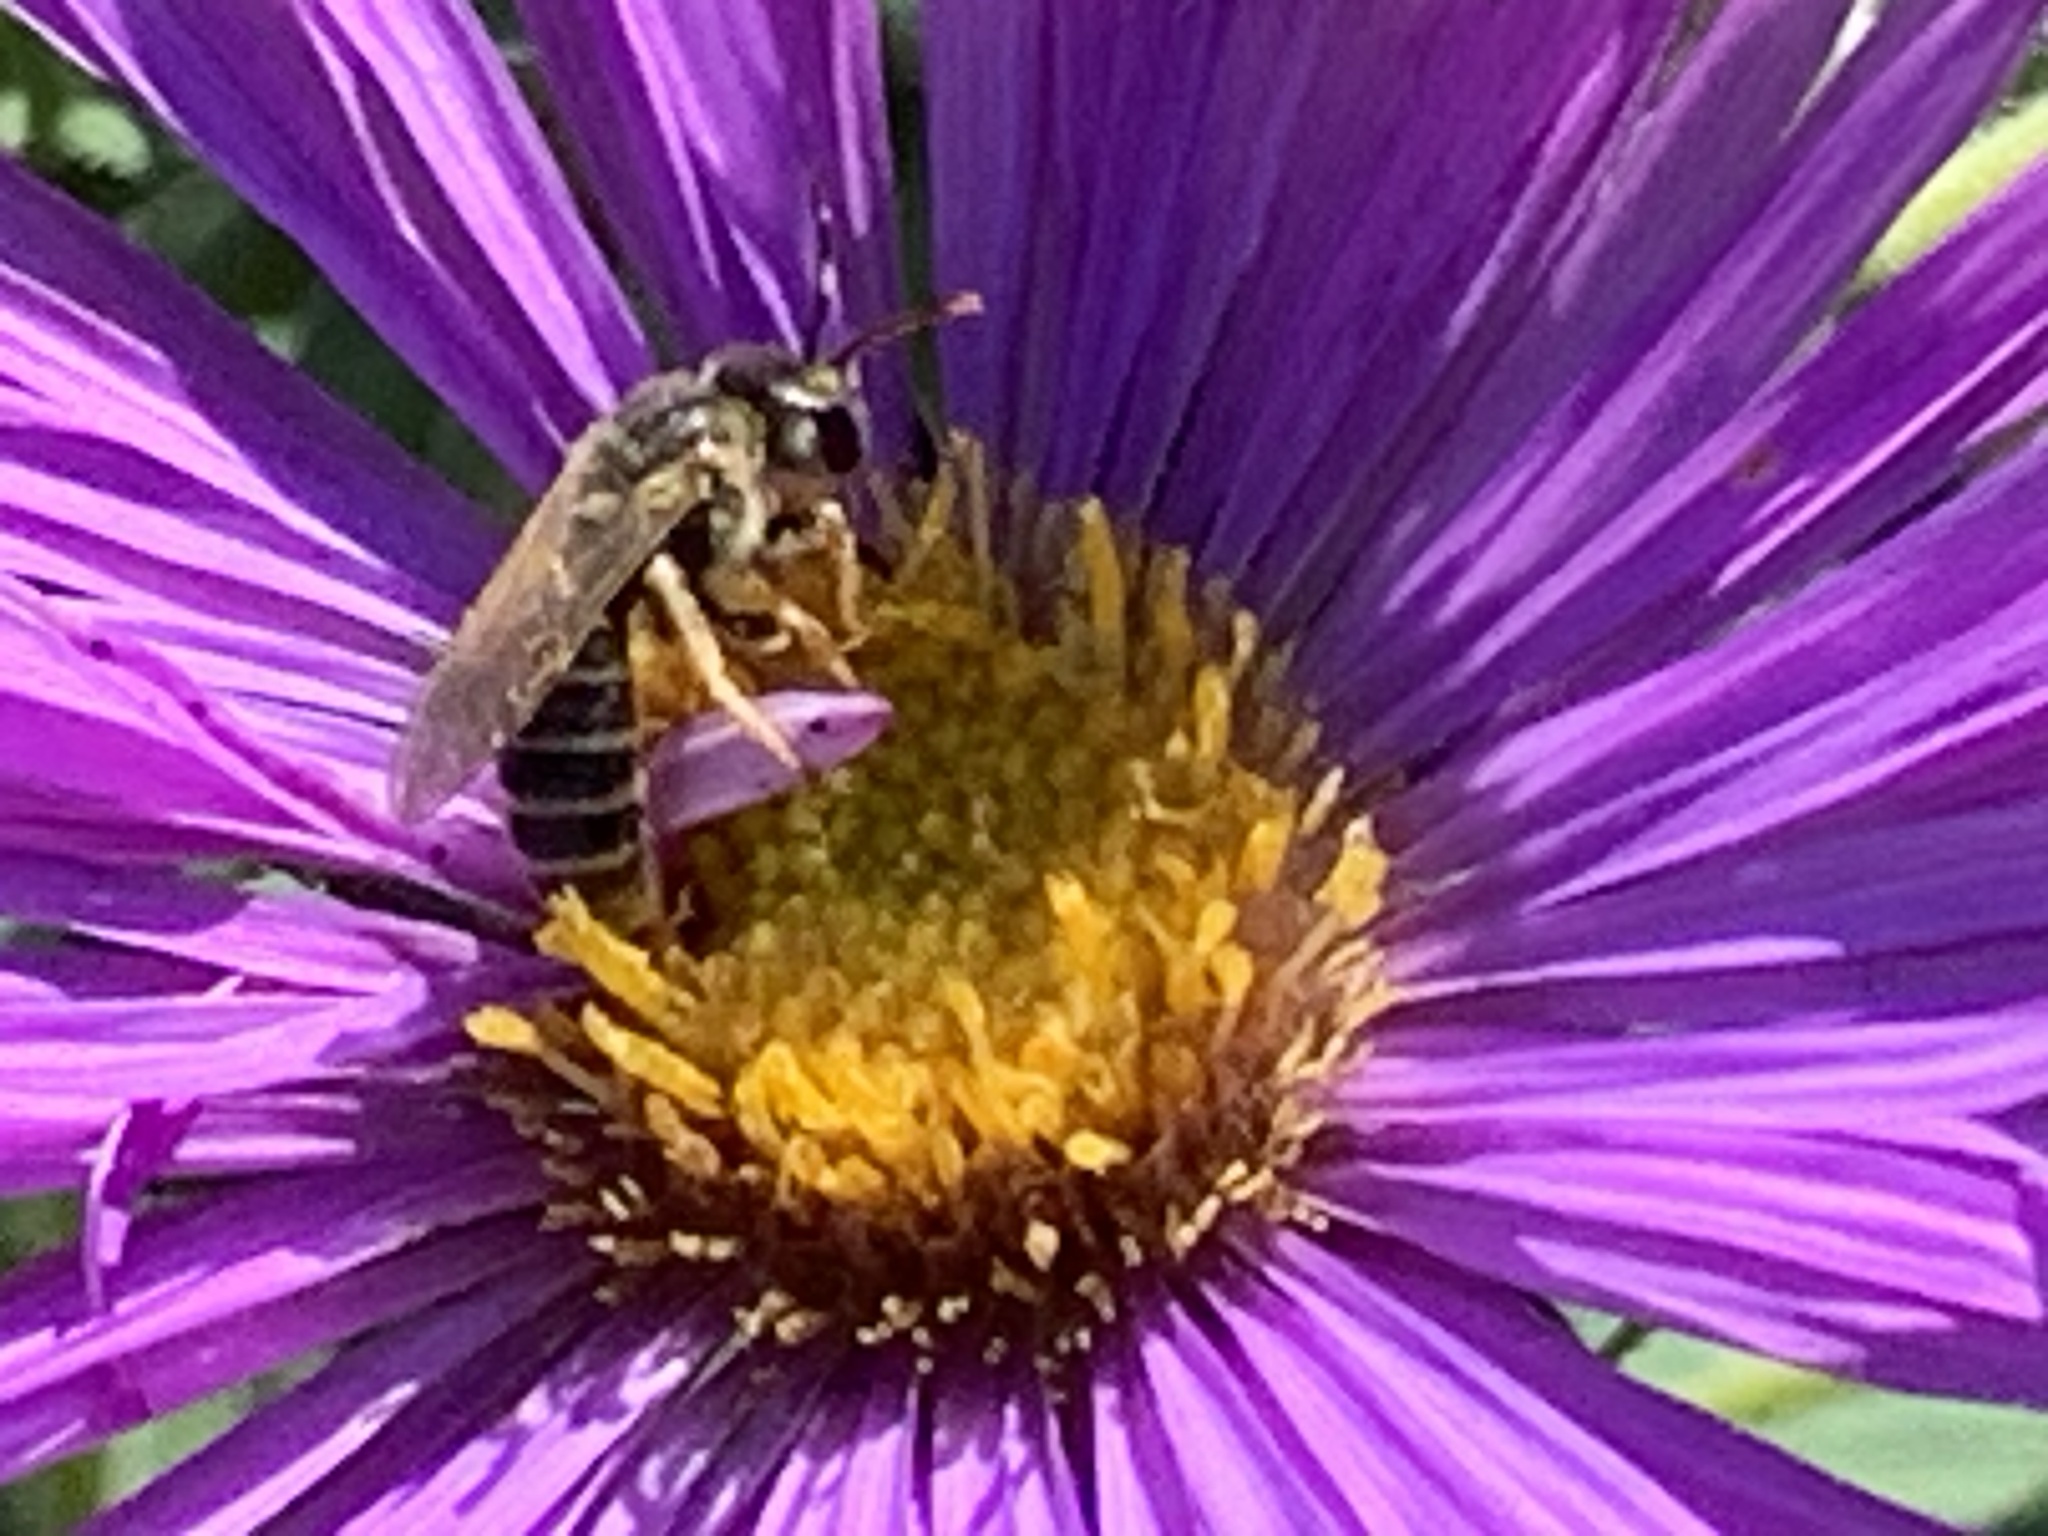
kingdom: Animalia
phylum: Arthropoda
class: Insecta
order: Hymenoptera
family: Halictidae
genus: Halictus
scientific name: Halictus ligatus
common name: Ligated furrow bee
